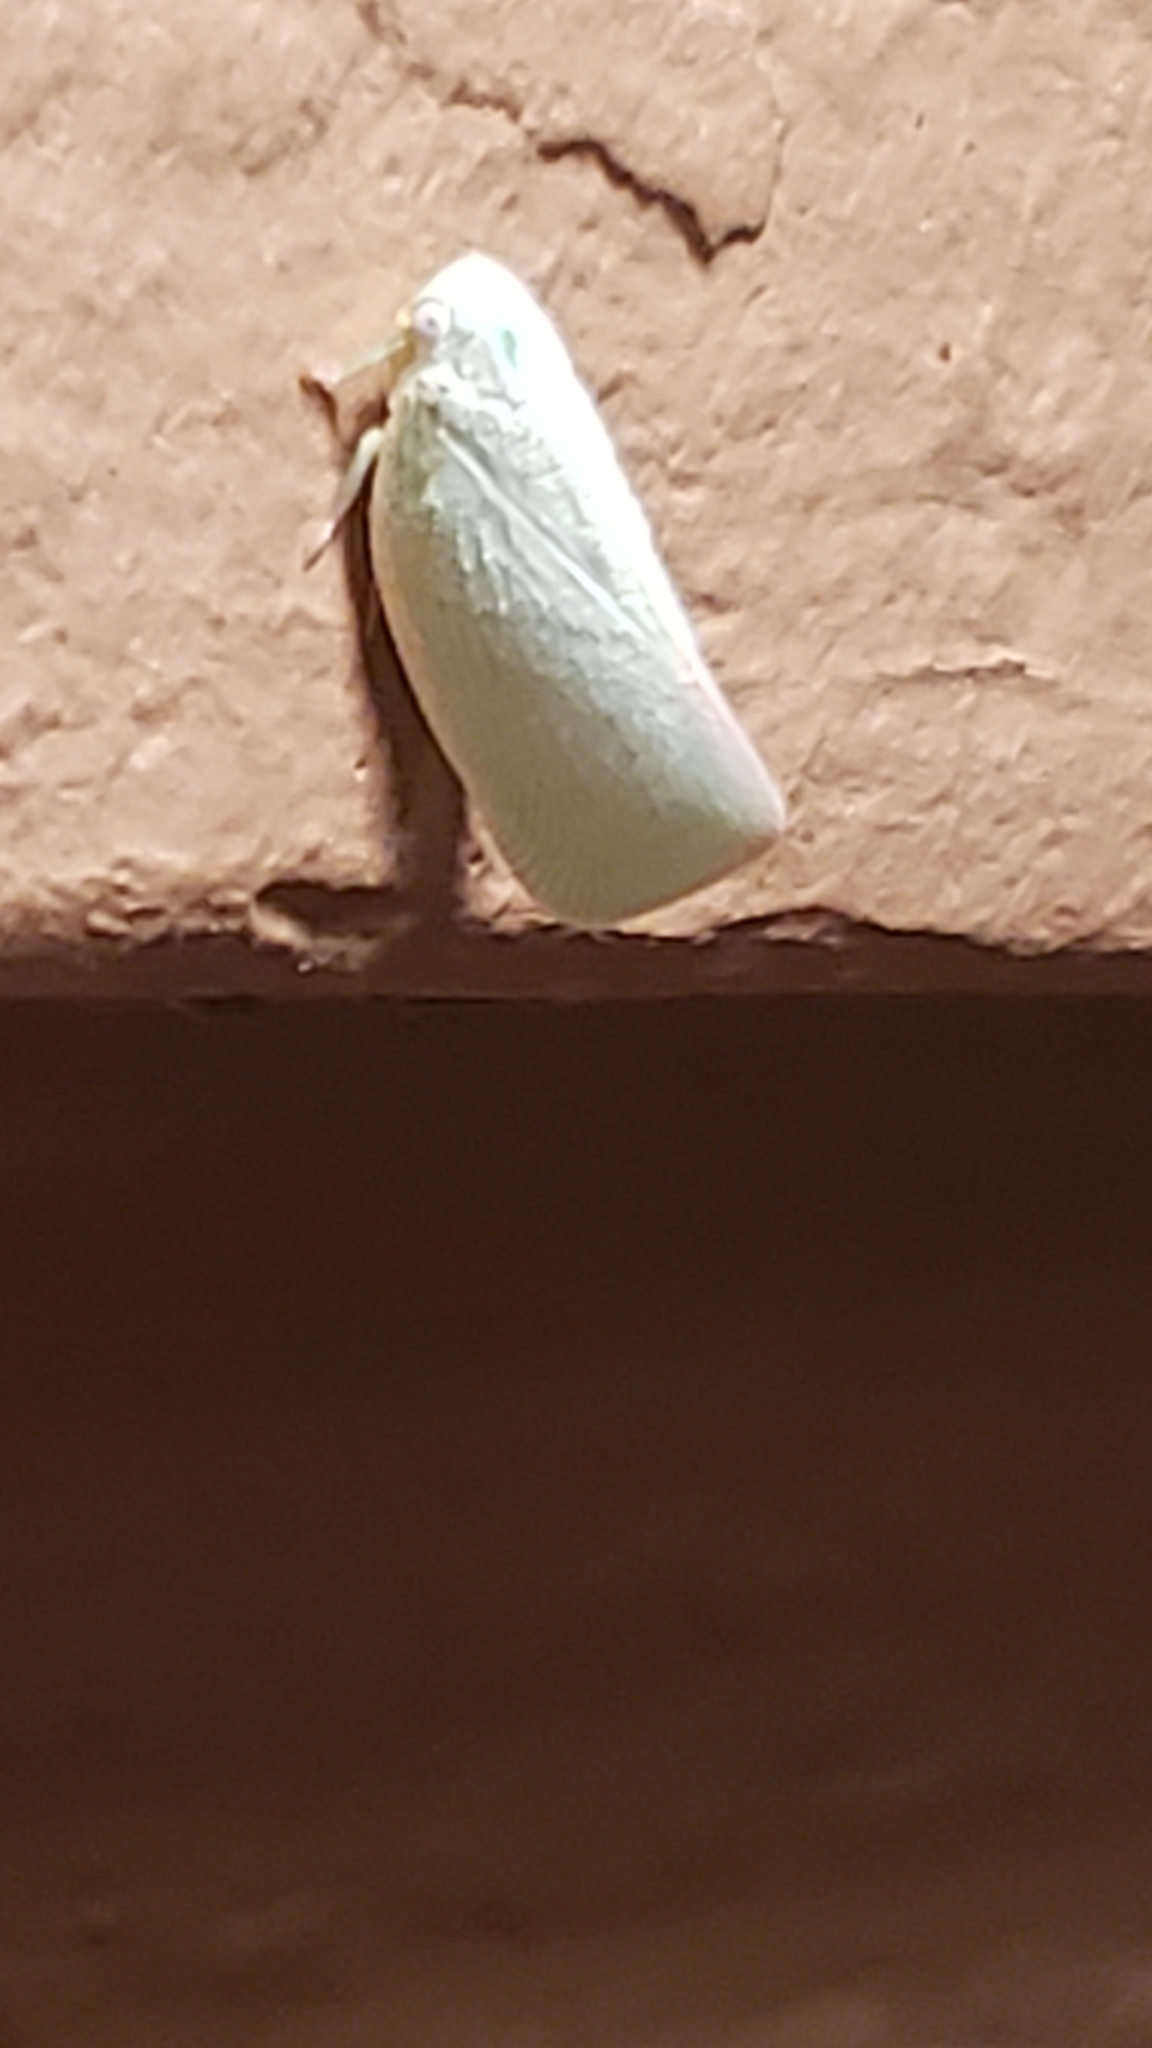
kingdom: Animalia
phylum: Arthropoda
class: Insecta
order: Hemiptera
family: Flatidae
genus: Flatormenis
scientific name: Flatormenis proxima
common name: Northern flatid planthopper
